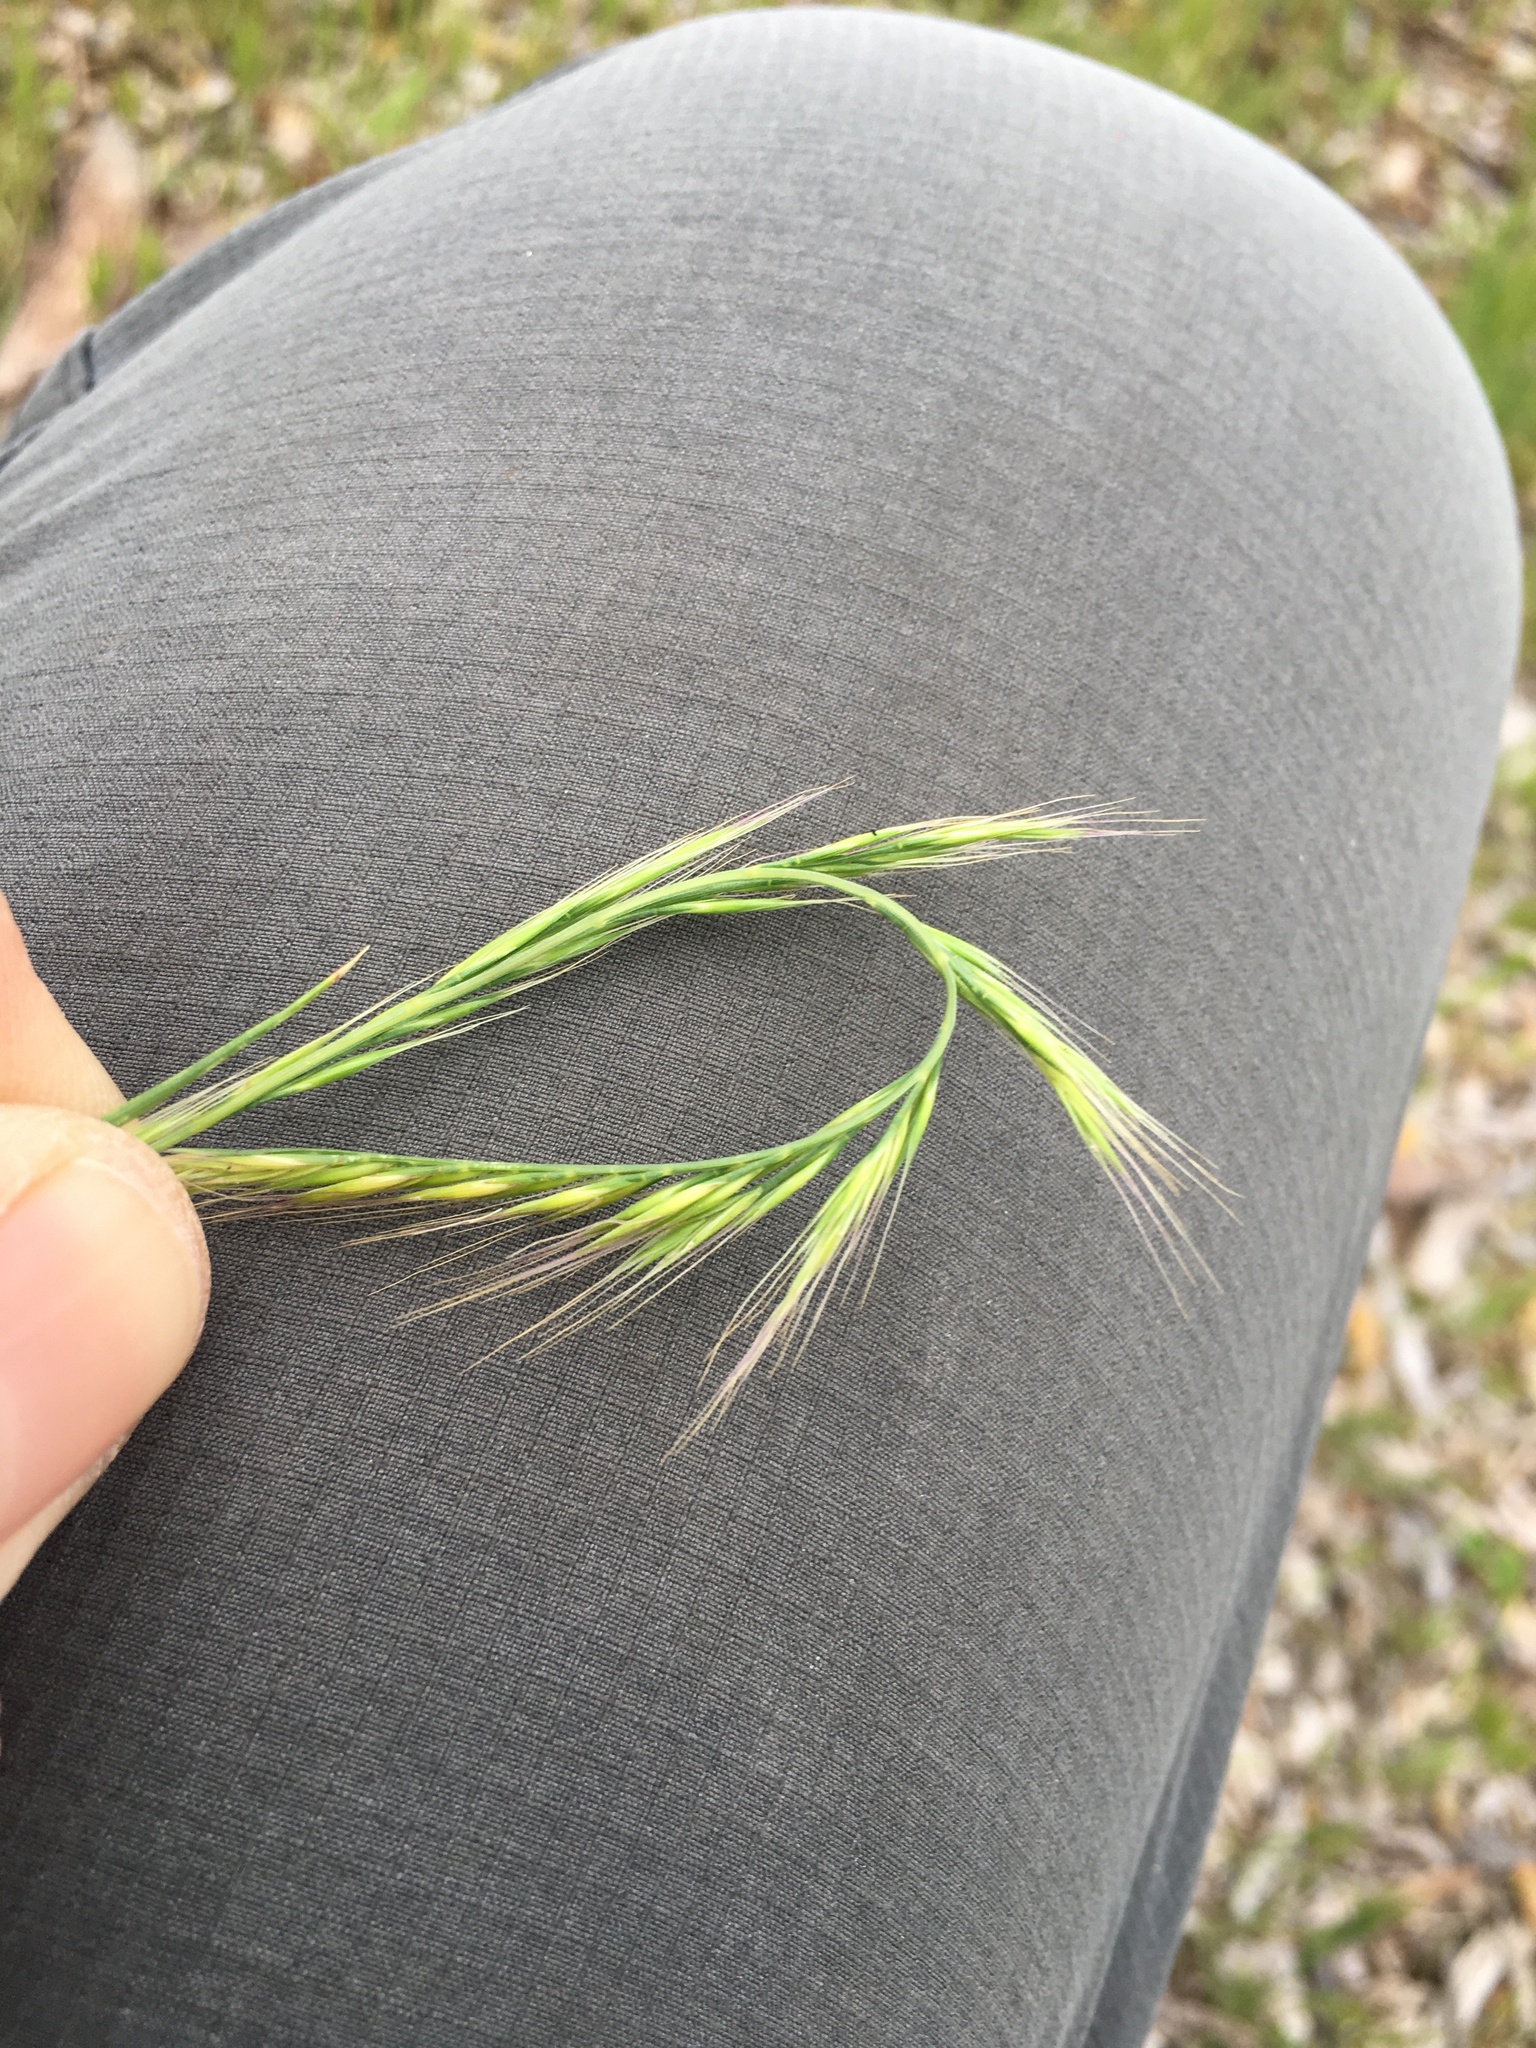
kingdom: Plantae
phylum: Tracheophyta
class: Liliopsida
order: Poales
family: Poaceae
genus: Festuca
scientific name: Festuca myuros
